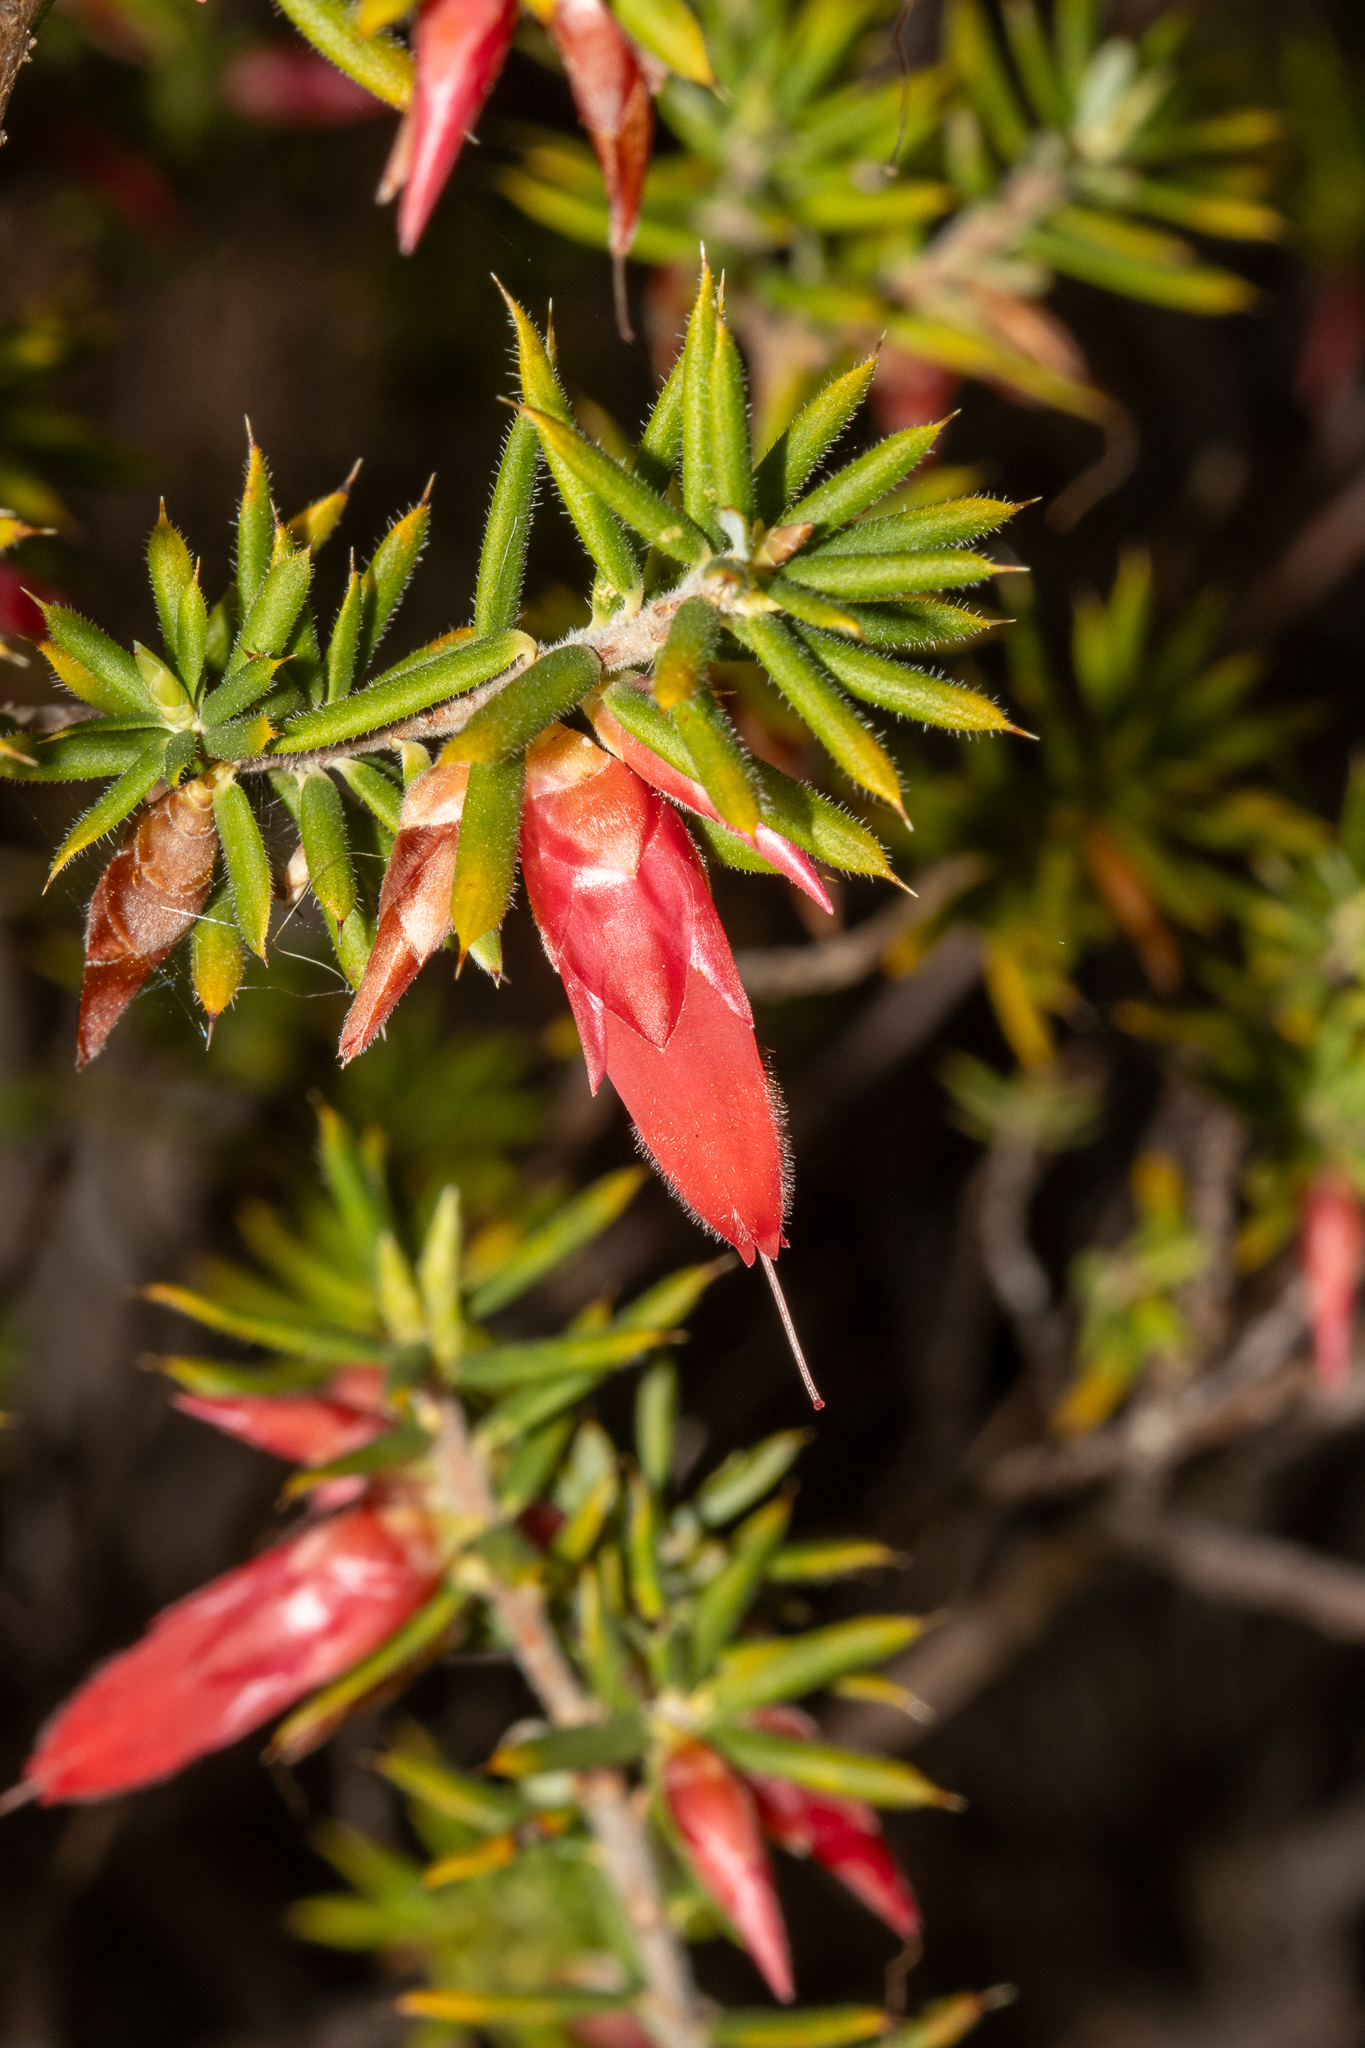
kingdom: Plantae
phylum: Tracheophyta
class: Magnoliopsida
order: Ericales
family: Ericaceae
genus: Stenanthera
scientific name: Stenanthera conostephioides
